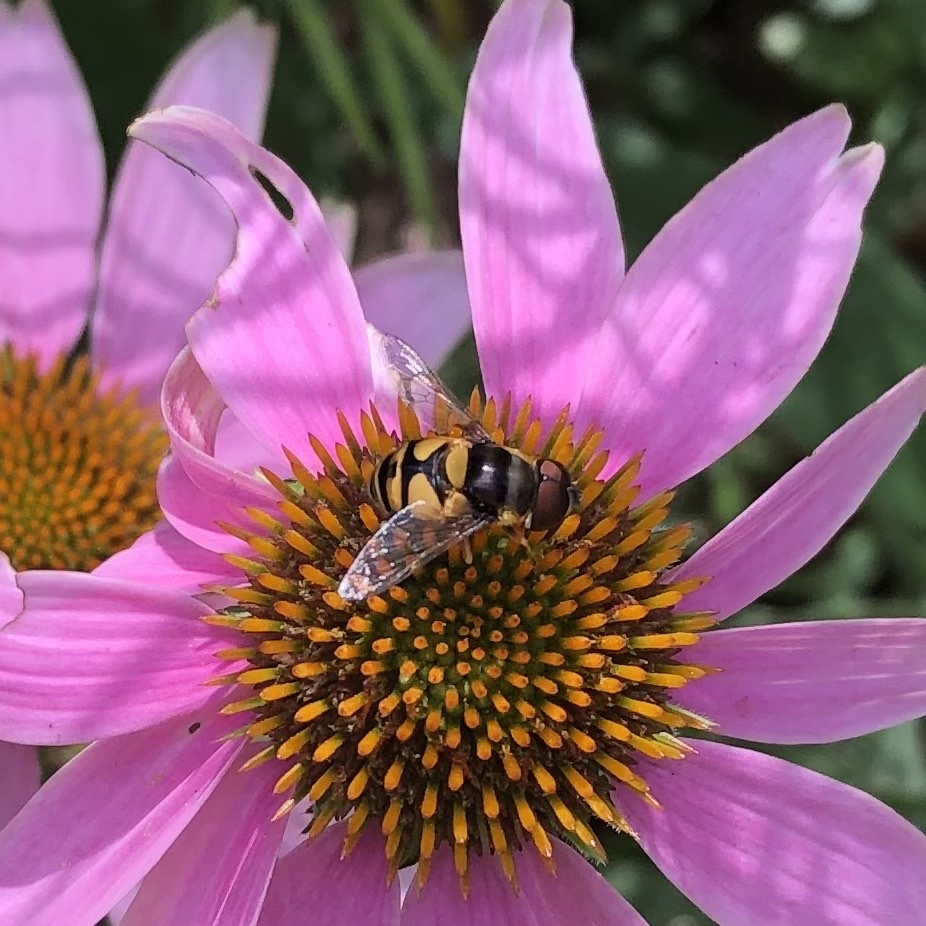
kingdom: Animalia
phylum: Arthropoda
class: Insecta
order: Diptera
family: Syrphidae
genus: Eristalis
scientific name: Eristalis transversa
